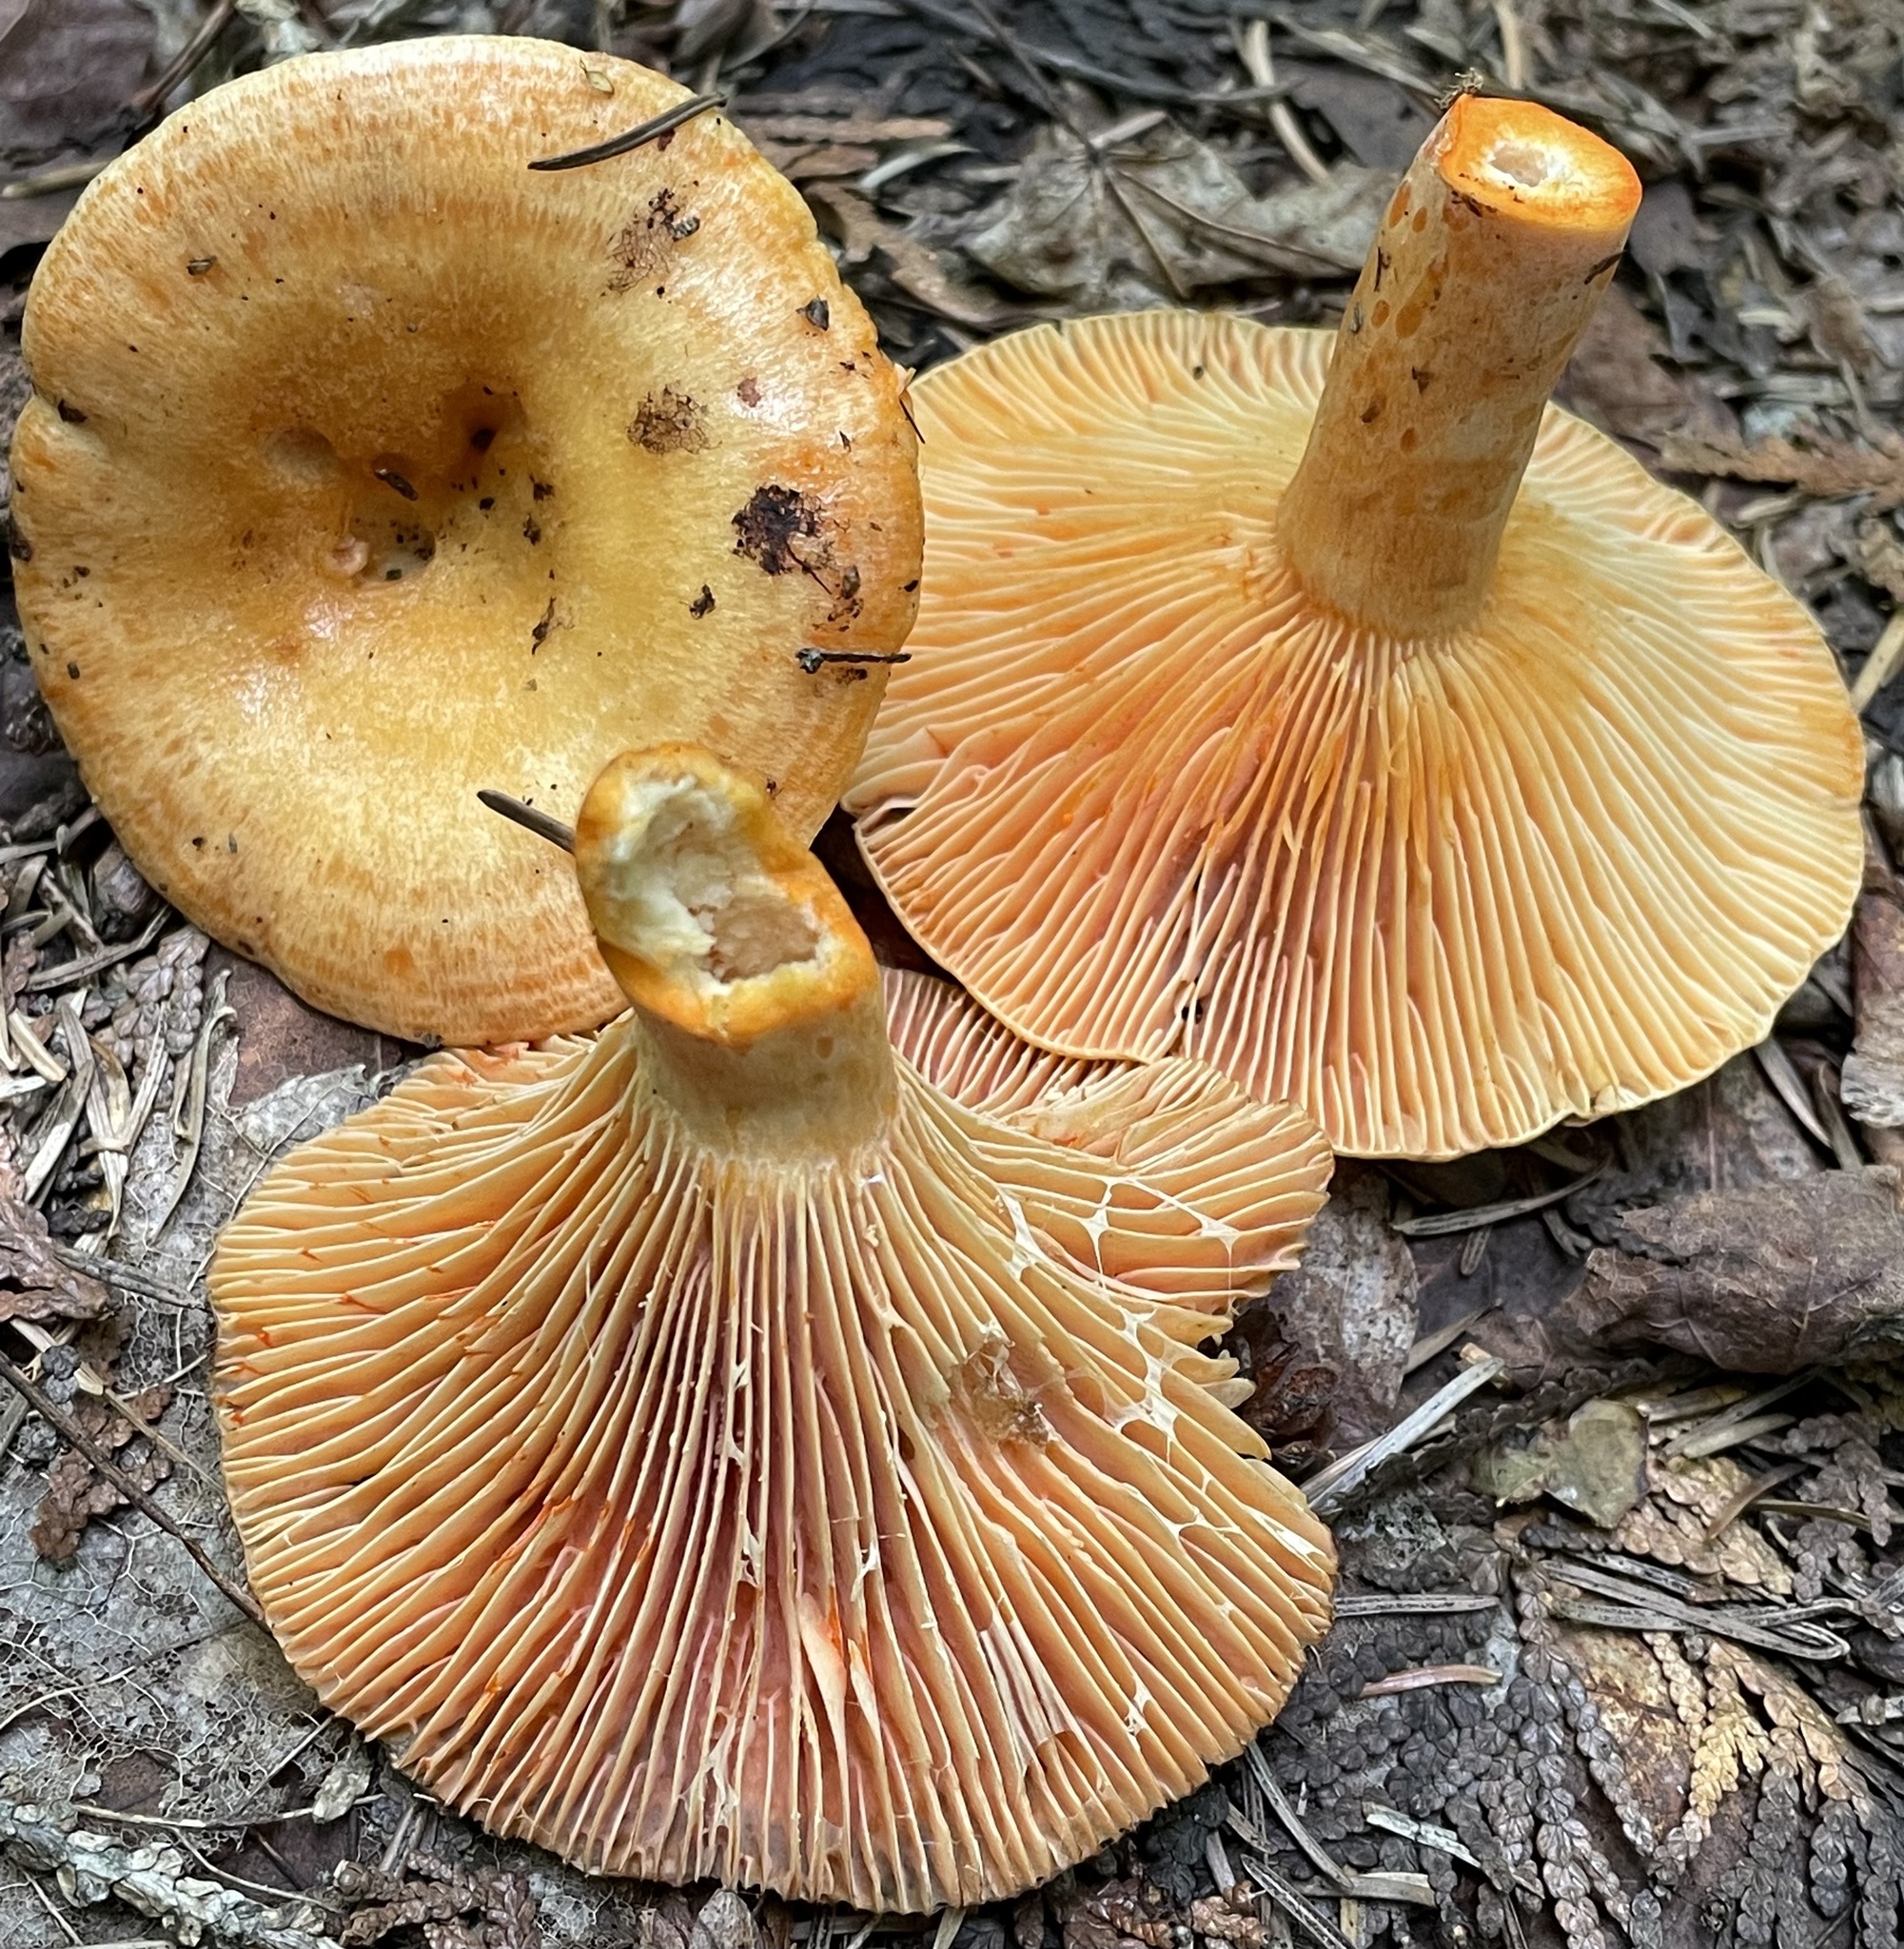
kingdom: Fungi
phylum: Basidiomycota
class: Agaricomycetes
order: Russulales
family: Russulaceae
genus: Lactarius
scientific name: Lactarius salmonicolor
